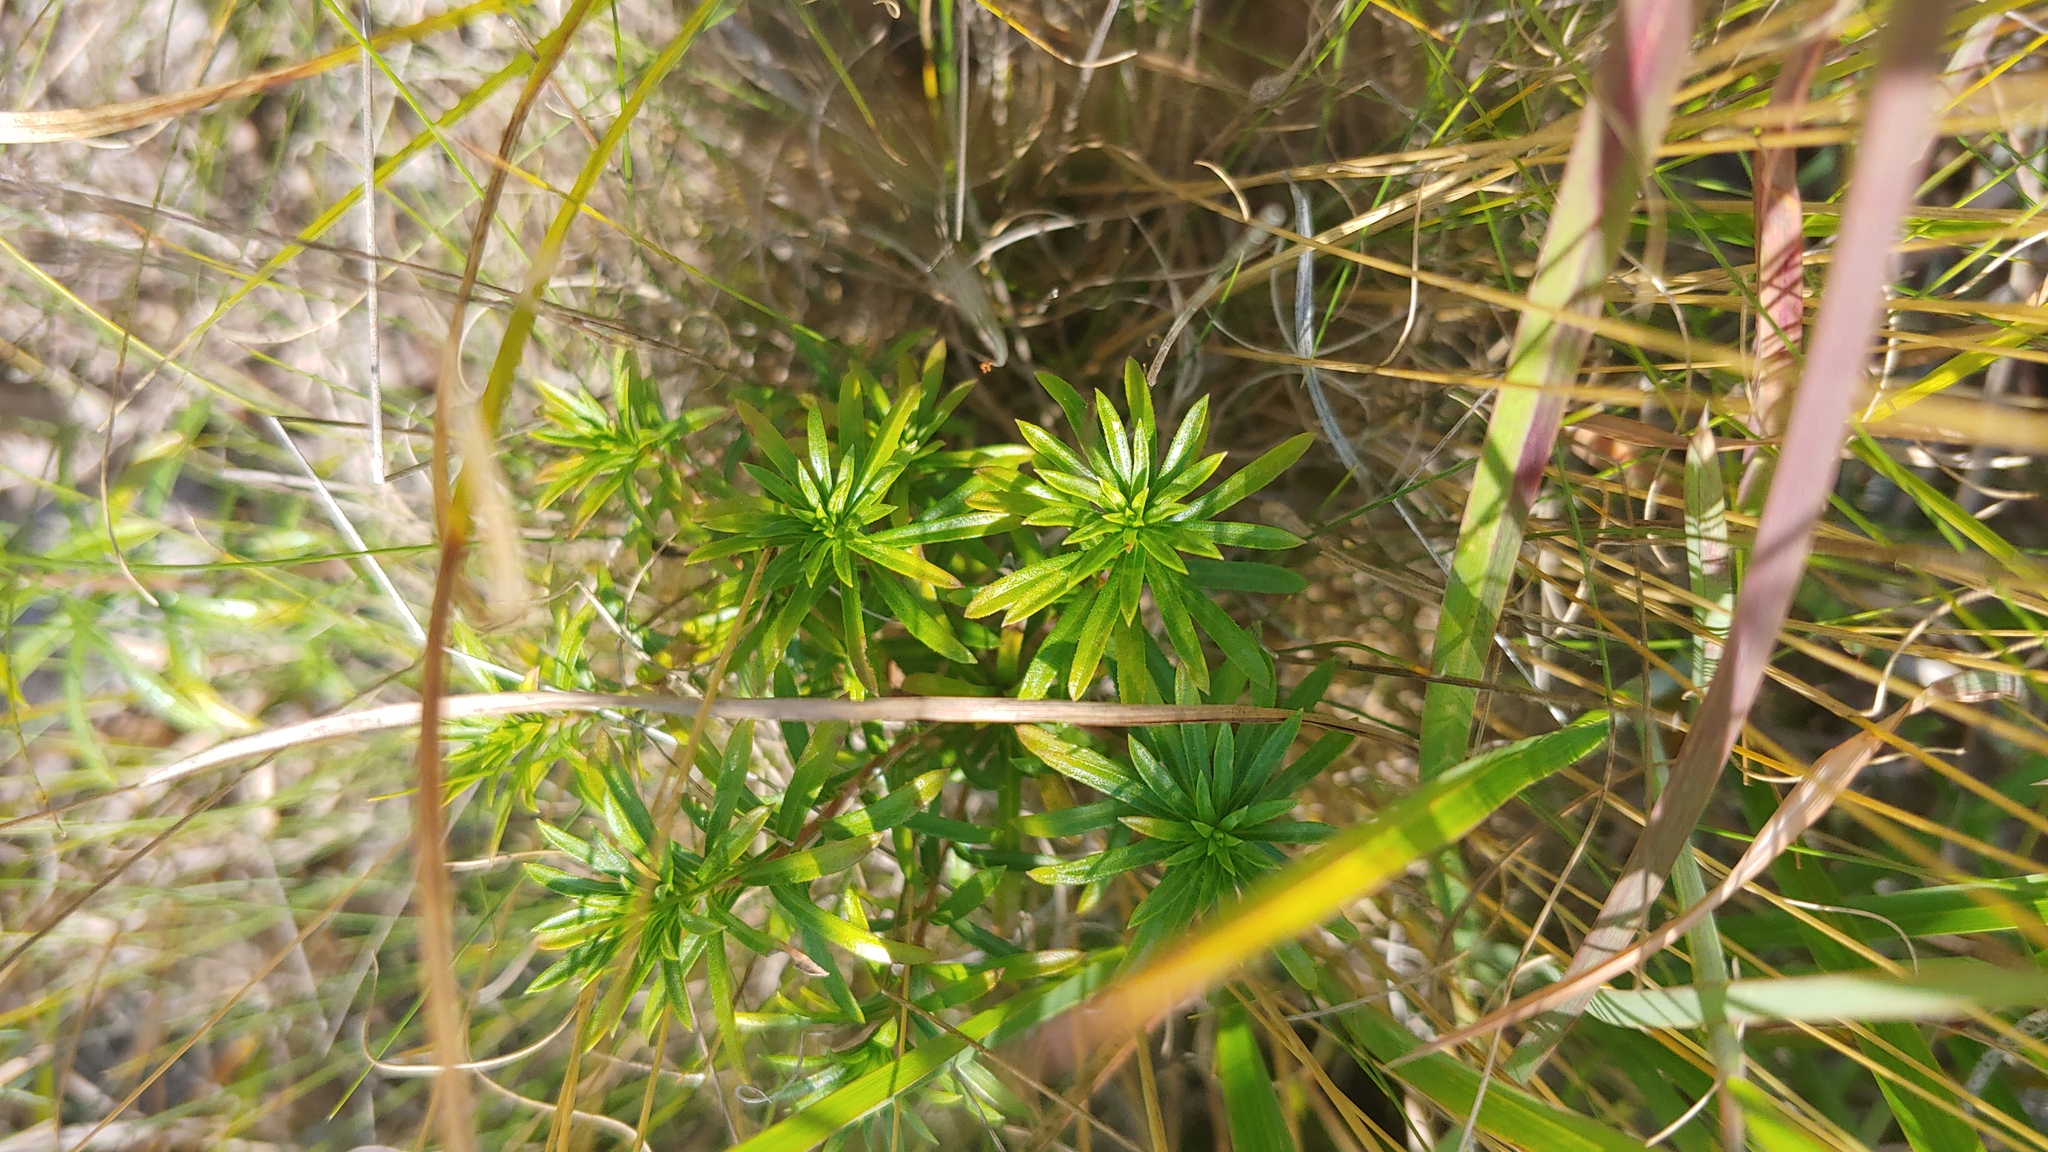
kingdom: Plantae
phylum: Tracheophyta
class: Magnoliopsida
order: Asterales
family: Asteraceae
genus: Ionactis
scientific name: Ionactis linariifolia
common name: Flax-leaf aster
